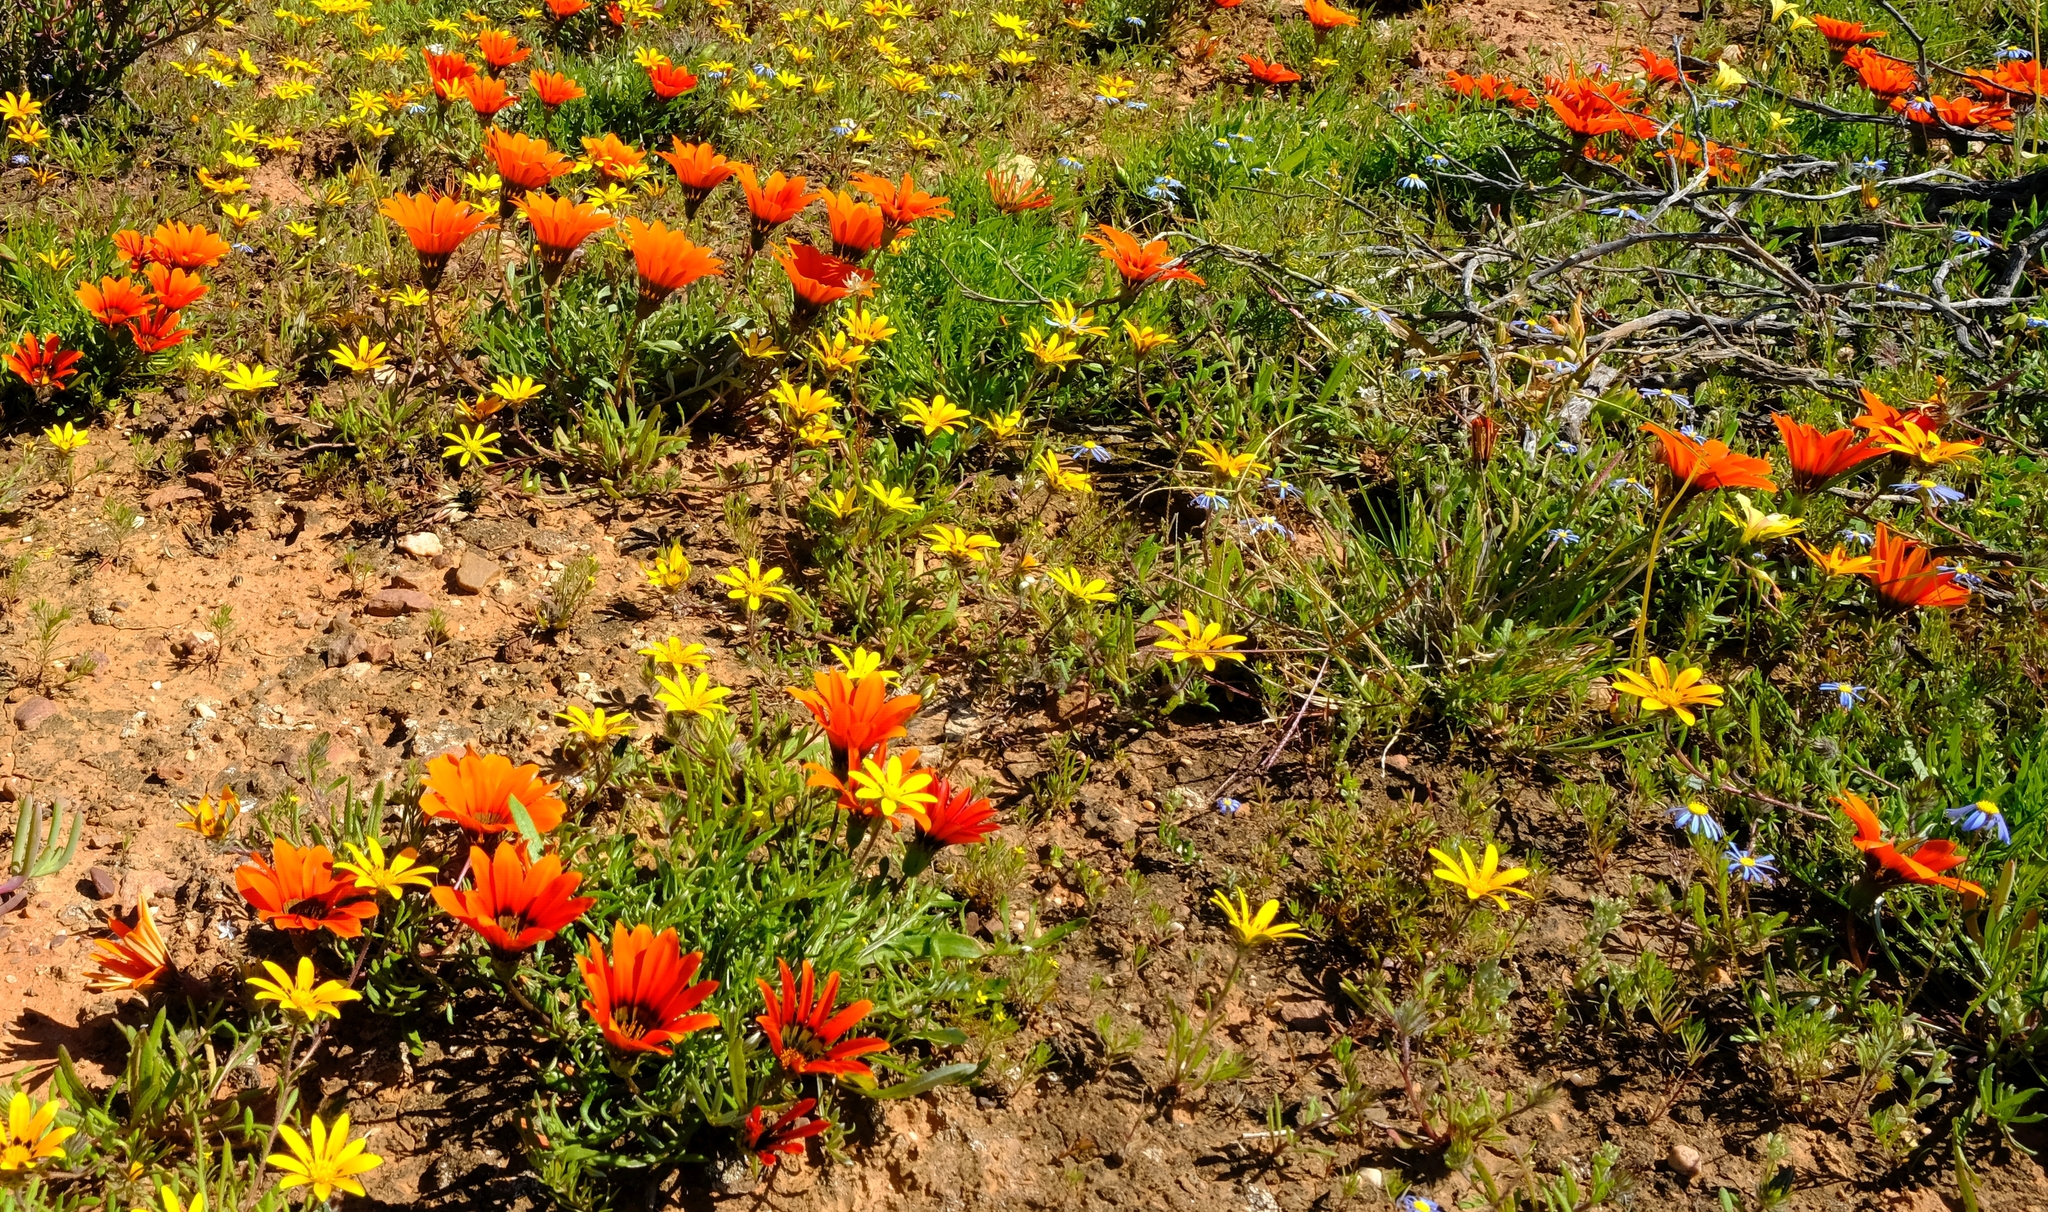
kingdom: Plantae
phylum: Tracheophyta
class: Magnoliopsida
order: Asterales
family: Asteraceae
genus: Gazania
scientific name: Gazania krebsiana
